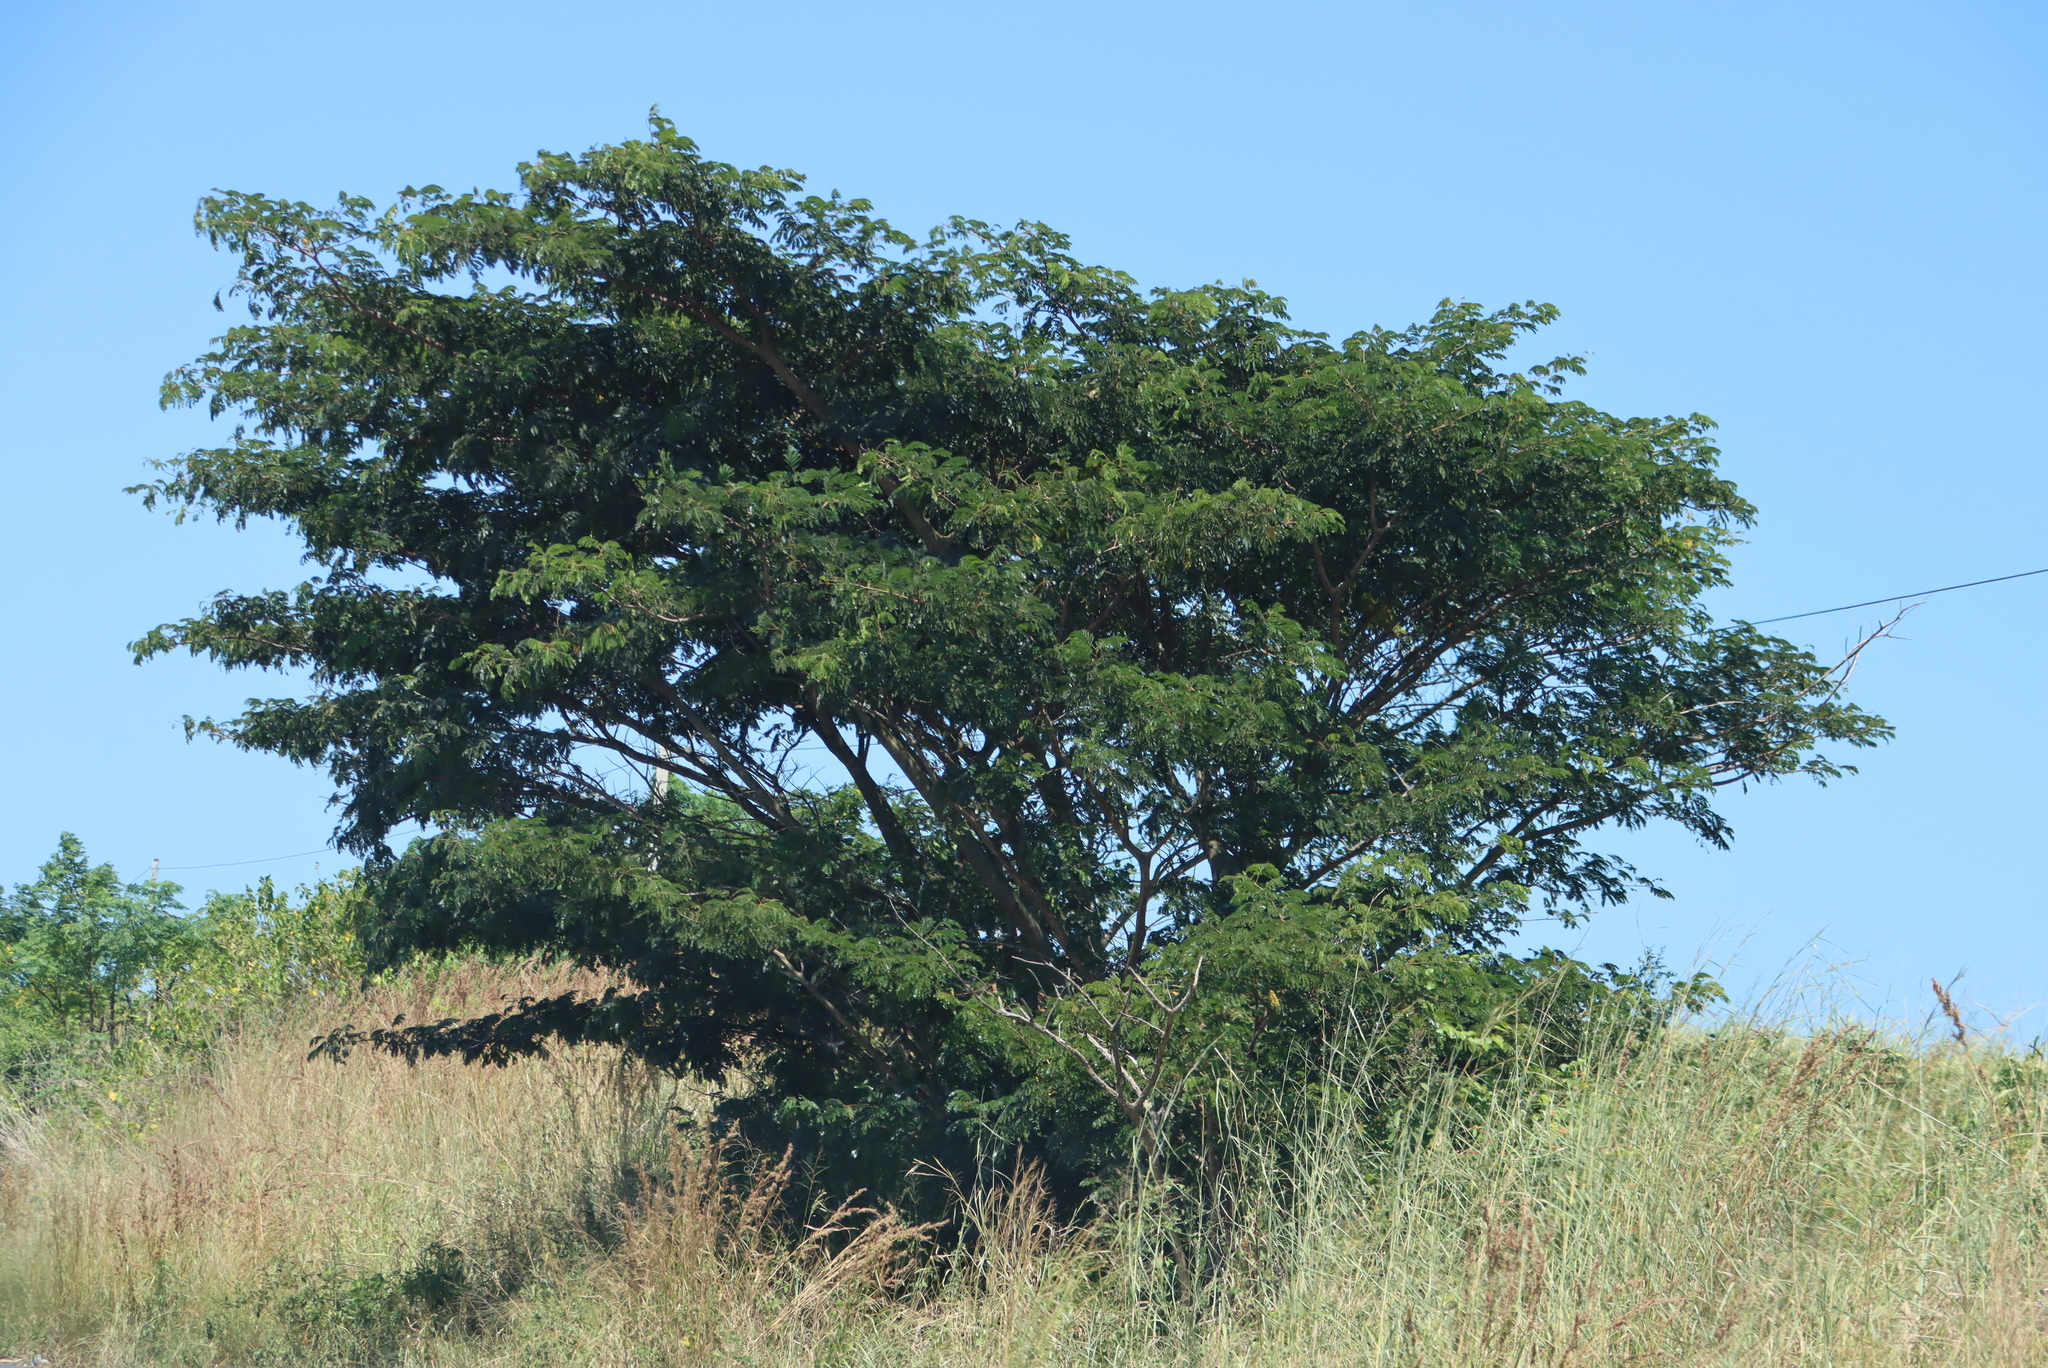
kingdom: Plantae
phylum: Tracheophyta
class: Magnoliopsida
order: Fabales
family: Fabaceae
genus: Albizia
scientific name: Albizia adianthifolia
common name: West african albizia
